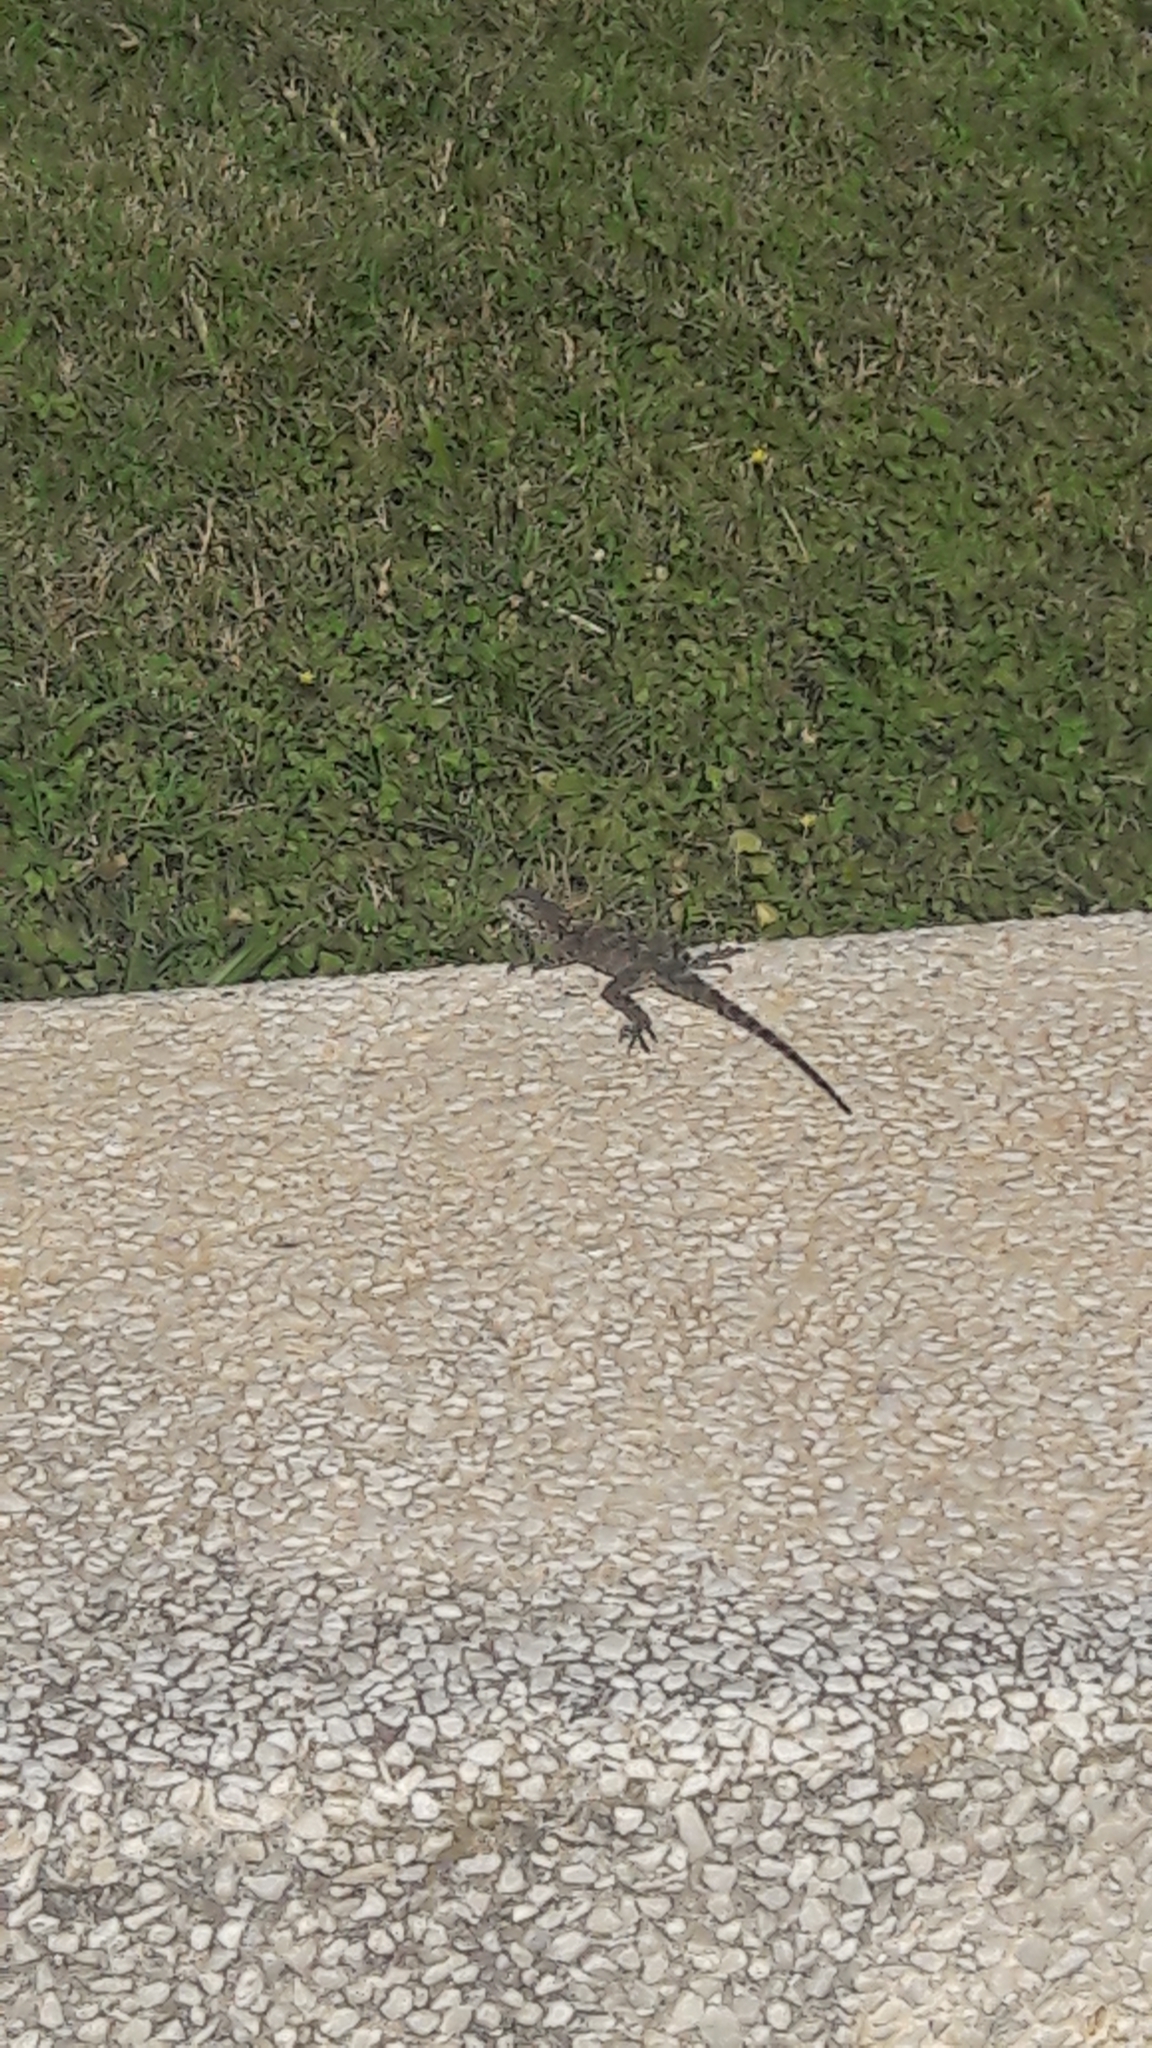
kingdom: Animalia
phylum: Chordata
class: Squamata
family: Agamidae
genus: Laudakia
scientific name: Laudakia vulgaris
